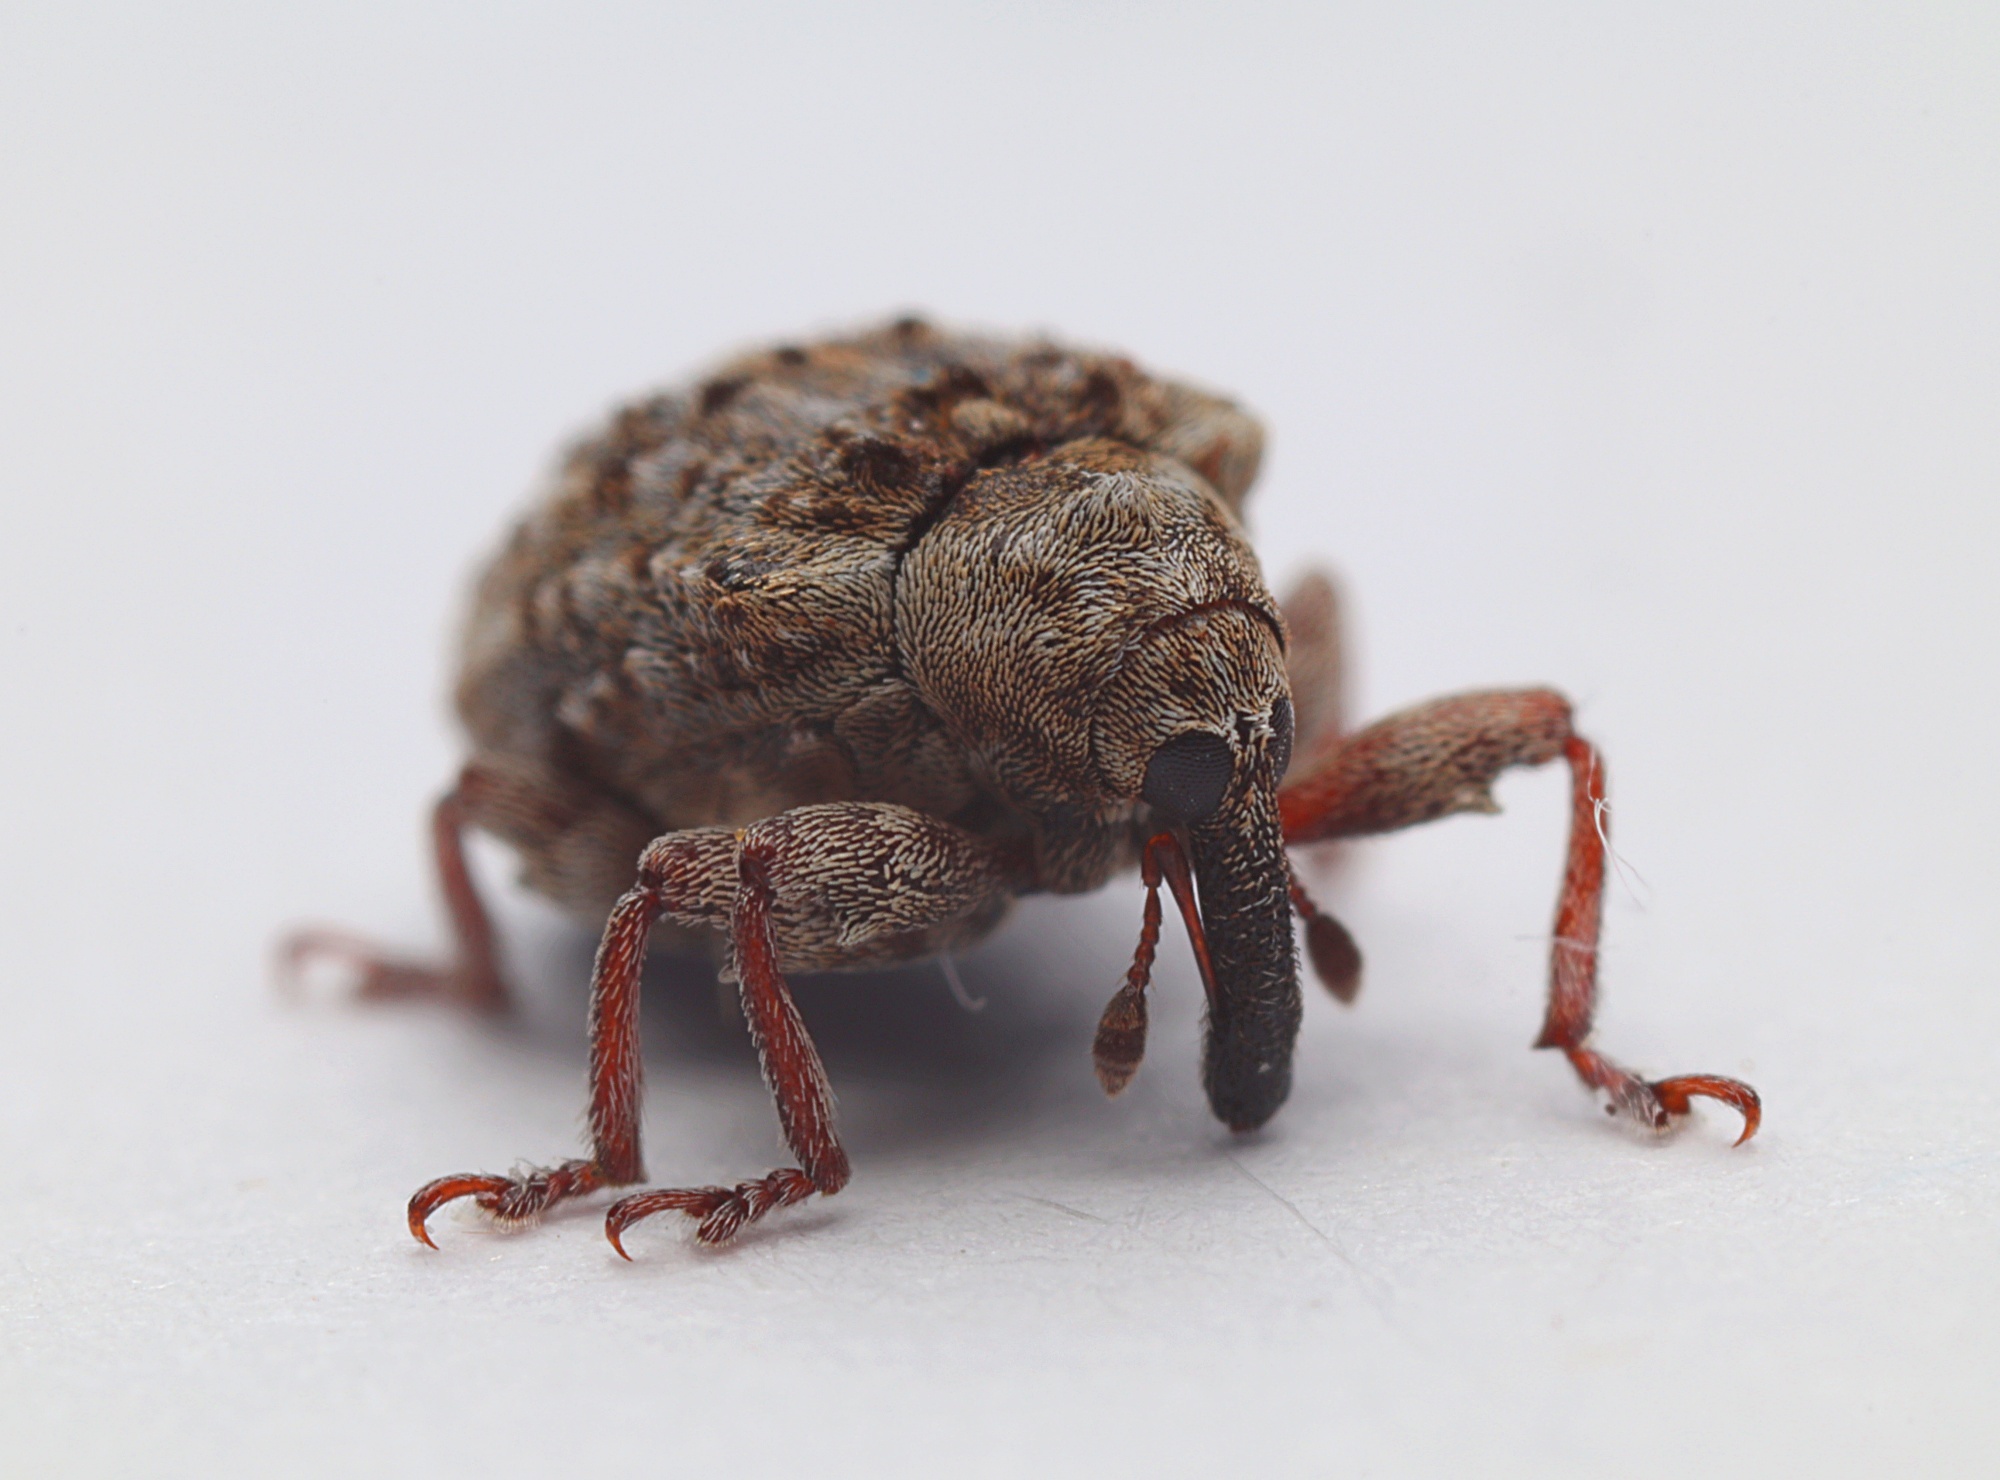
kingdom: Animalia
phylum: Arthropoda
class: Insecta
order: Coleoptera
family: Curculionidae
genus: Cleopus
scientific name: Cleopus japonicus
